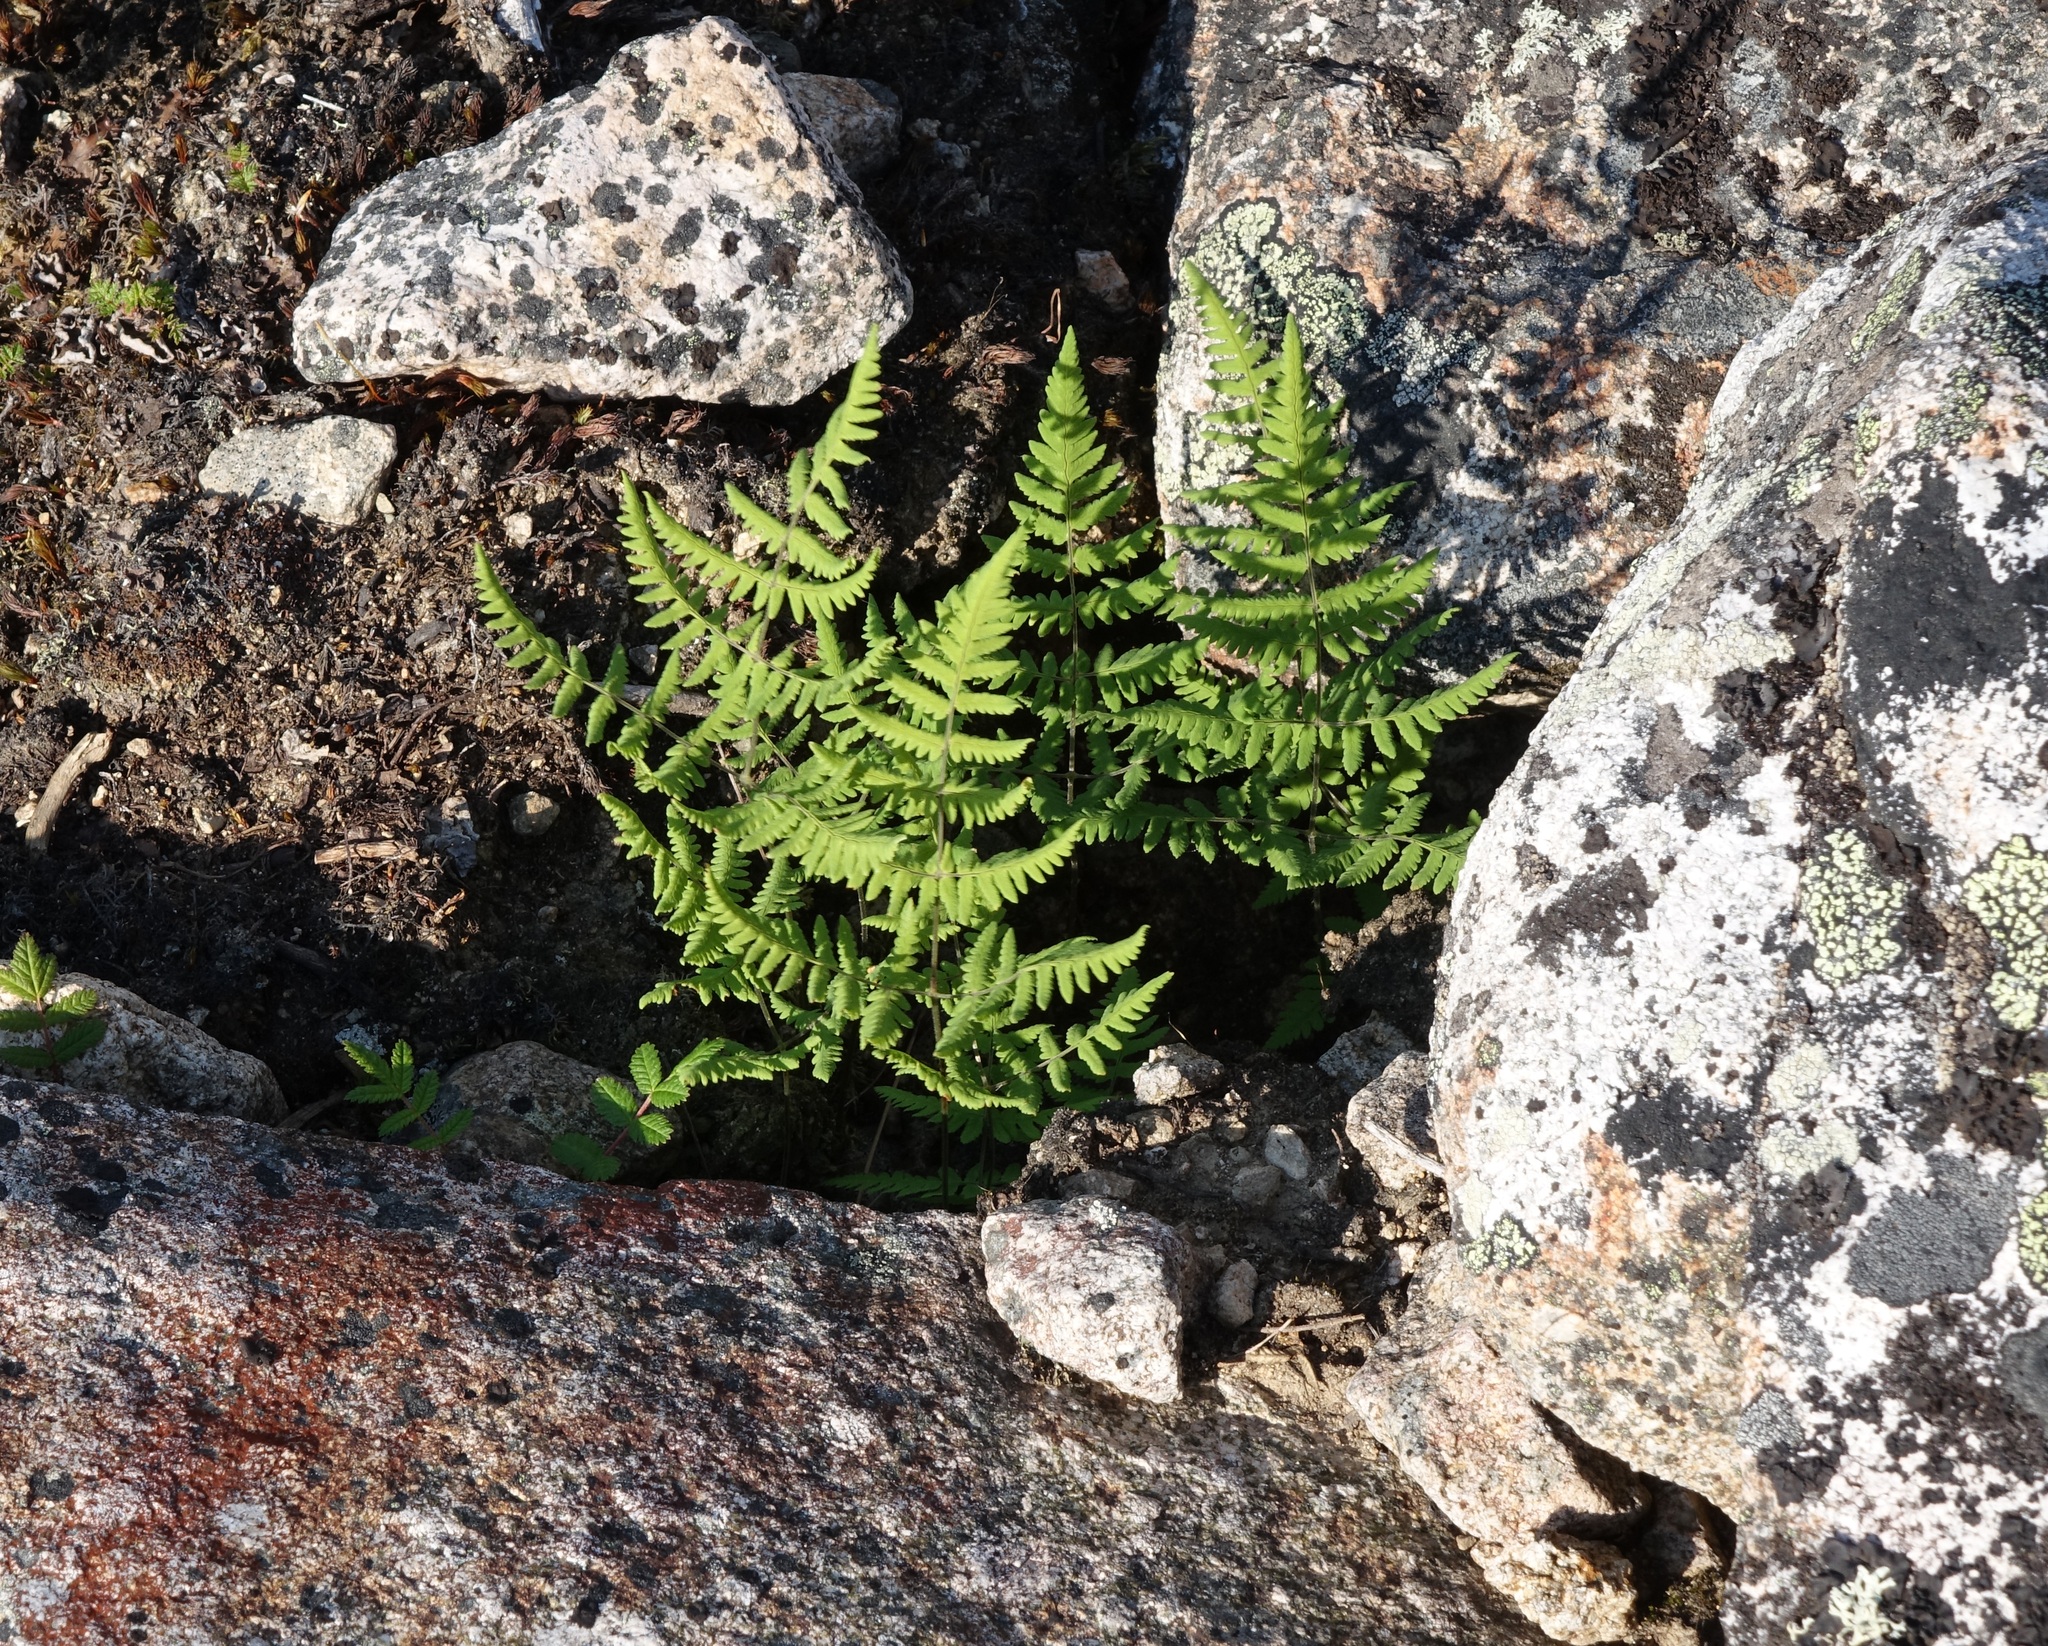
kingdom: Plantae
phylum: Tracheophyta
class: Polypodiopsida
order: Polypodiales
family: Cystopteridaceae
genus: Gymnocarpium
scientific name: Gymnocarpium jessoense
